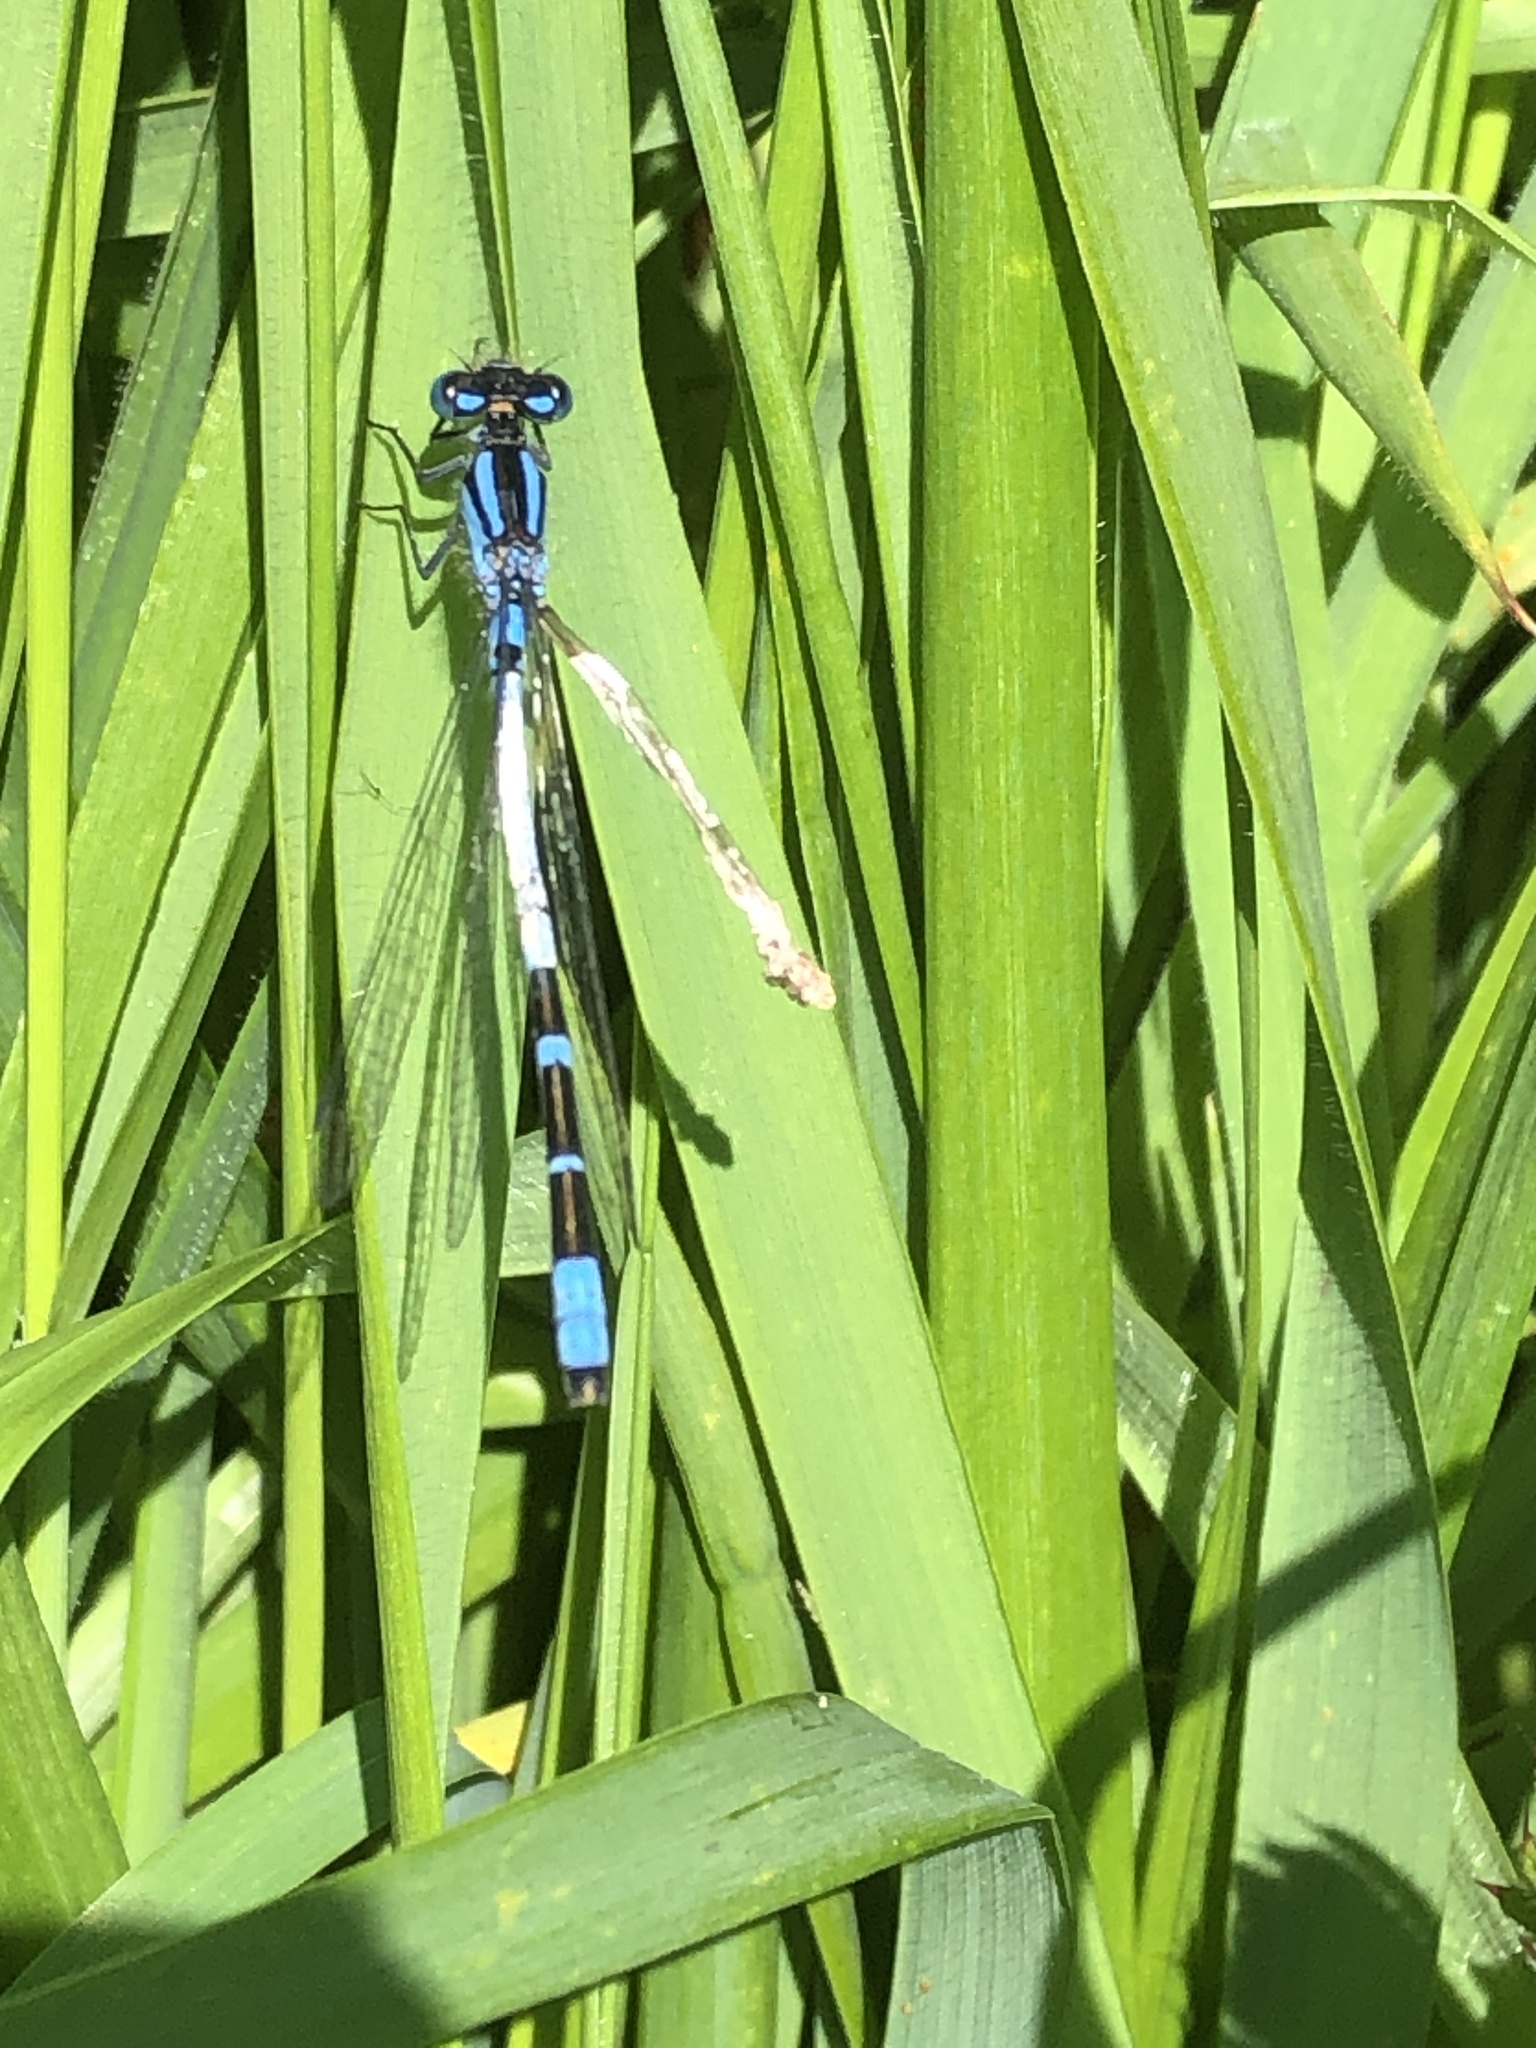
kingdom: Animalia
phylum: Arthropoda
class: Insecta
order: Odonata
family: Coenagrionidae
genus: Enallagma
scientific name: Enallagma cyathigerum
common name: Common blue damselfly
